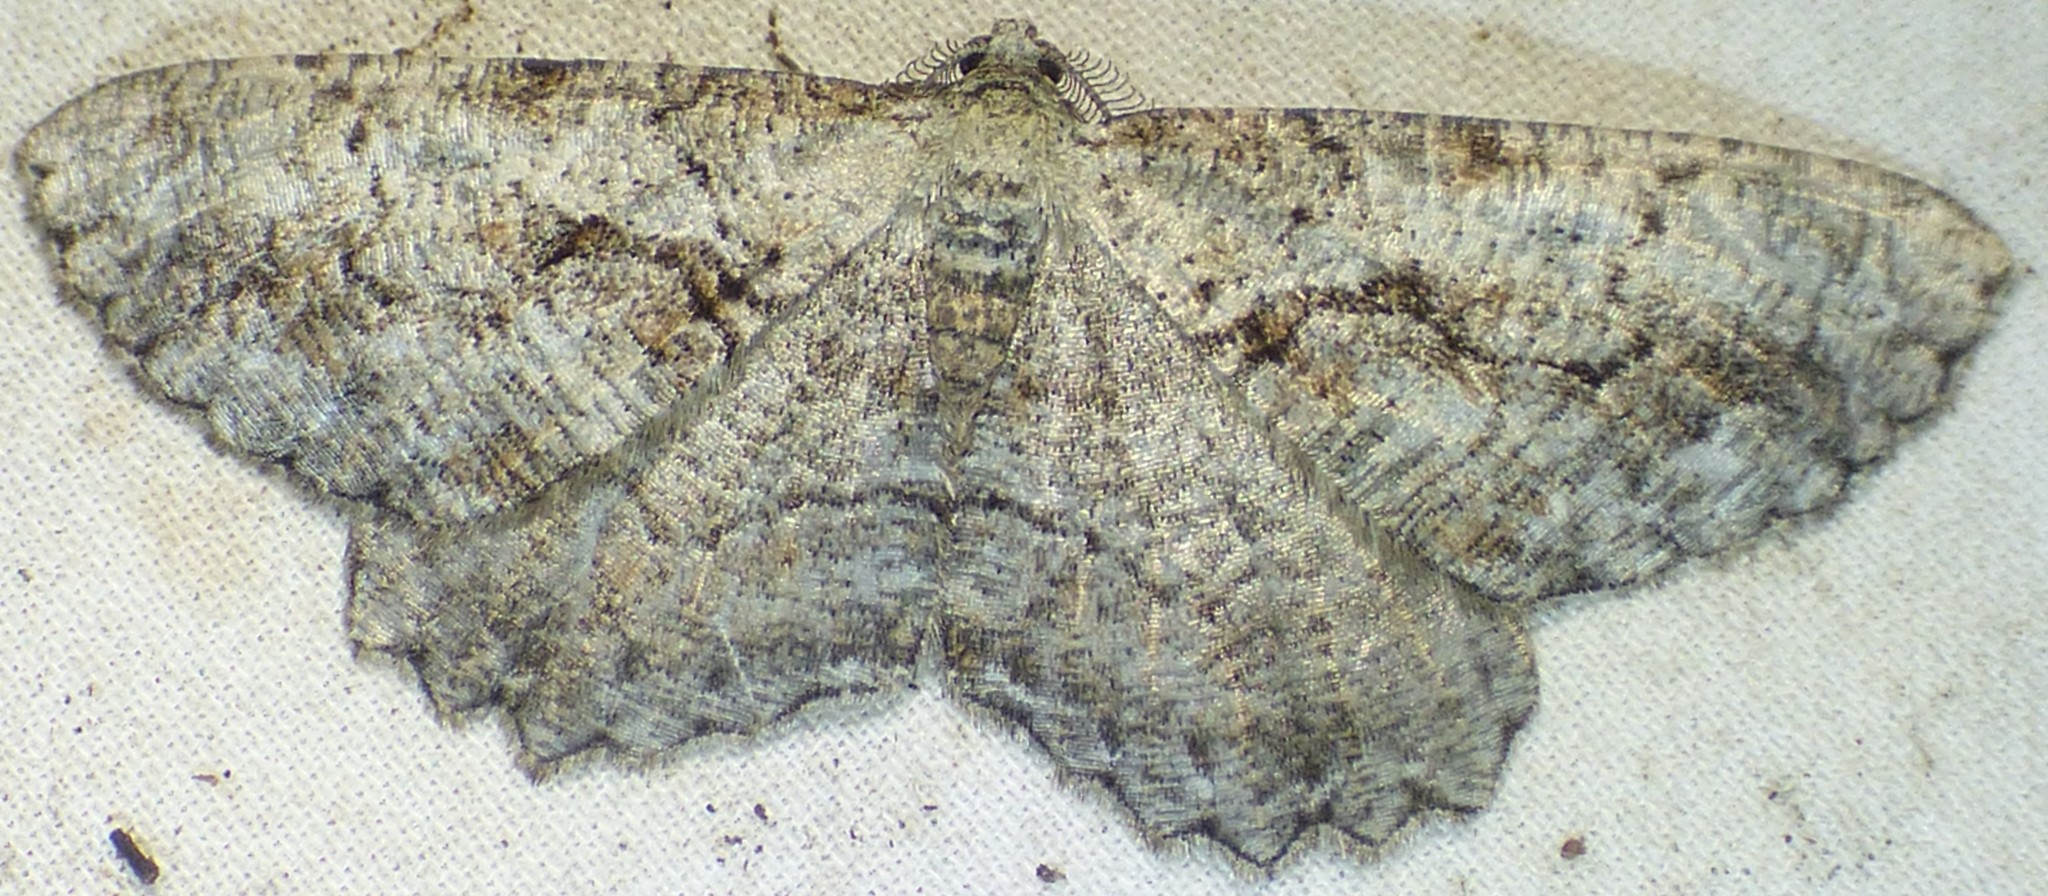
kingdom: Animalia
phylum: Arthropoda
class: Insecta
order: Lepidoptera
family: Geometridae
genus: Cymatophora
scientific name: Cymatophora approximaria
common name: Giant gray moth
